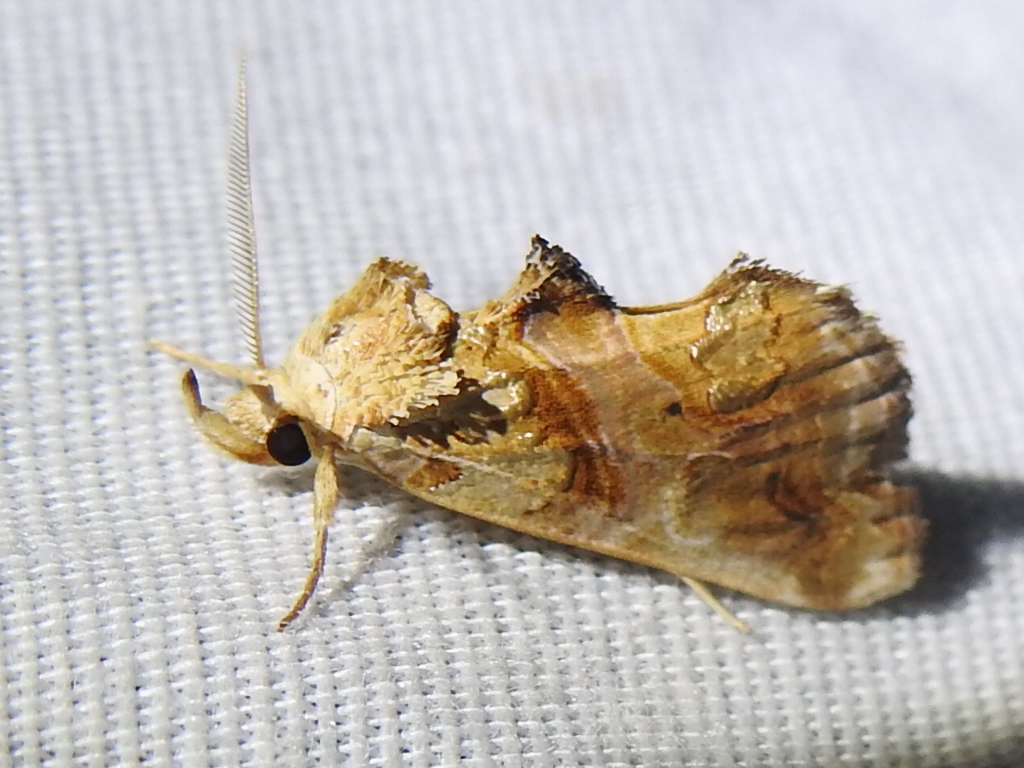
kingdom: Animalia
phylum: Arthropoda
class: Insecta
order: Lepidoptera
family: Erebidae
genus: Plusiodonta
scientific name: Plusiodonta compressipalpis
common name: Moonseed moth
